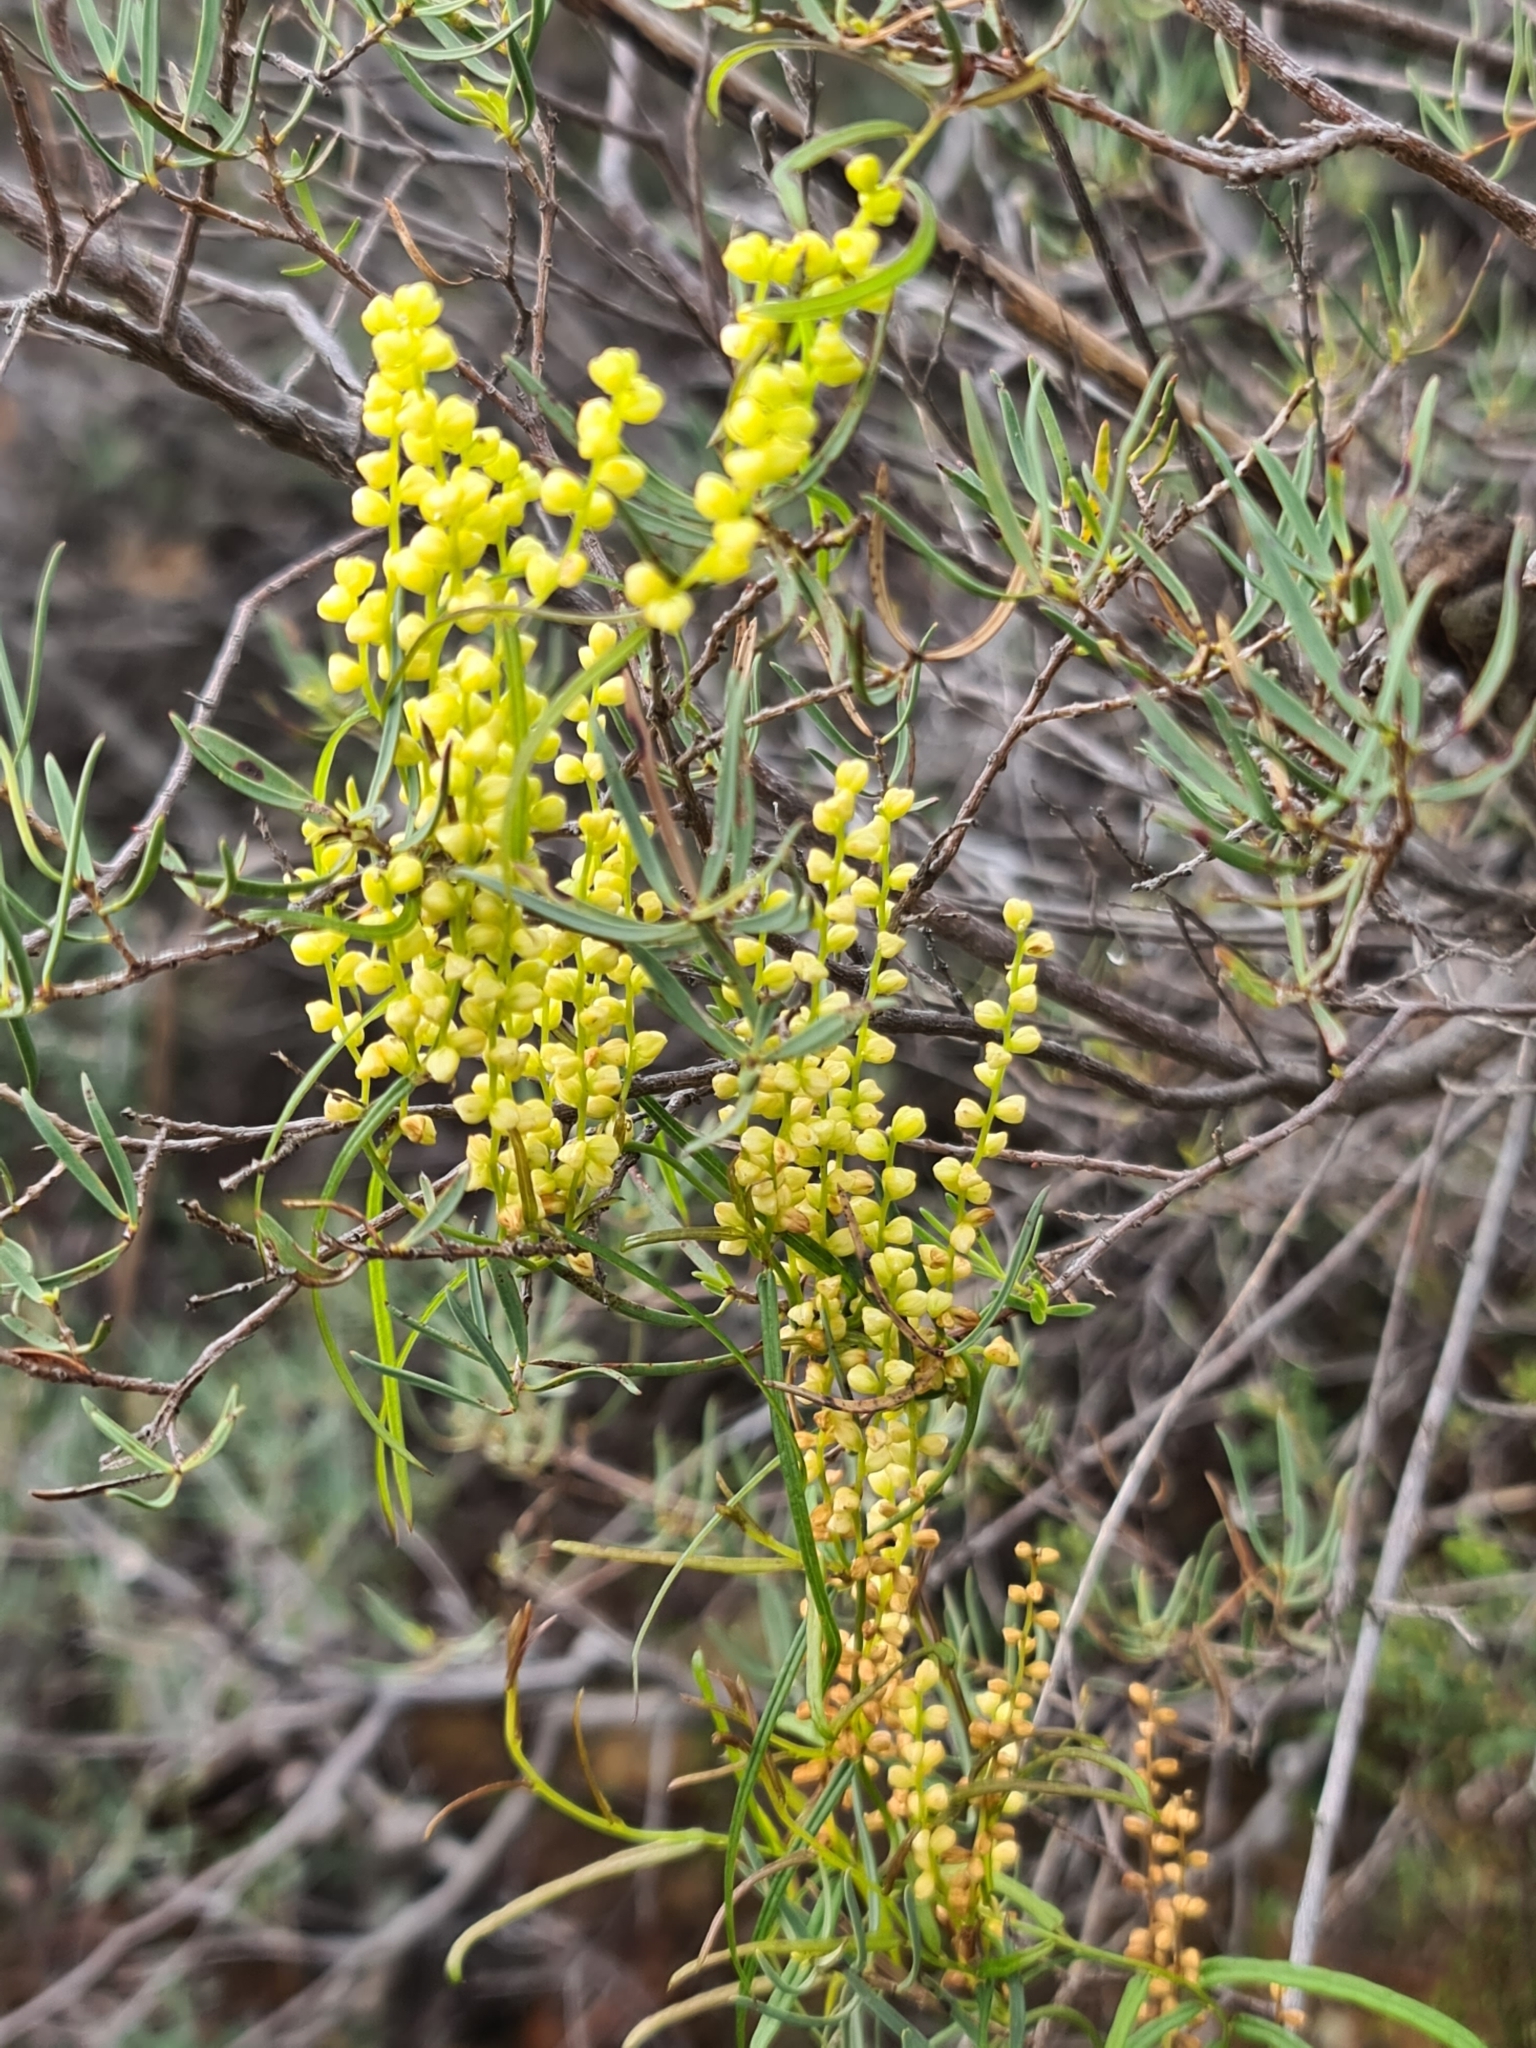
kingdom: Plantae
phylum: Tracheophyta
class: Liliopsida
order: Dioscoreales
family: Dioscoreaceae
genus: Dioscorea
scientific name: Dioscorea hastifolia
